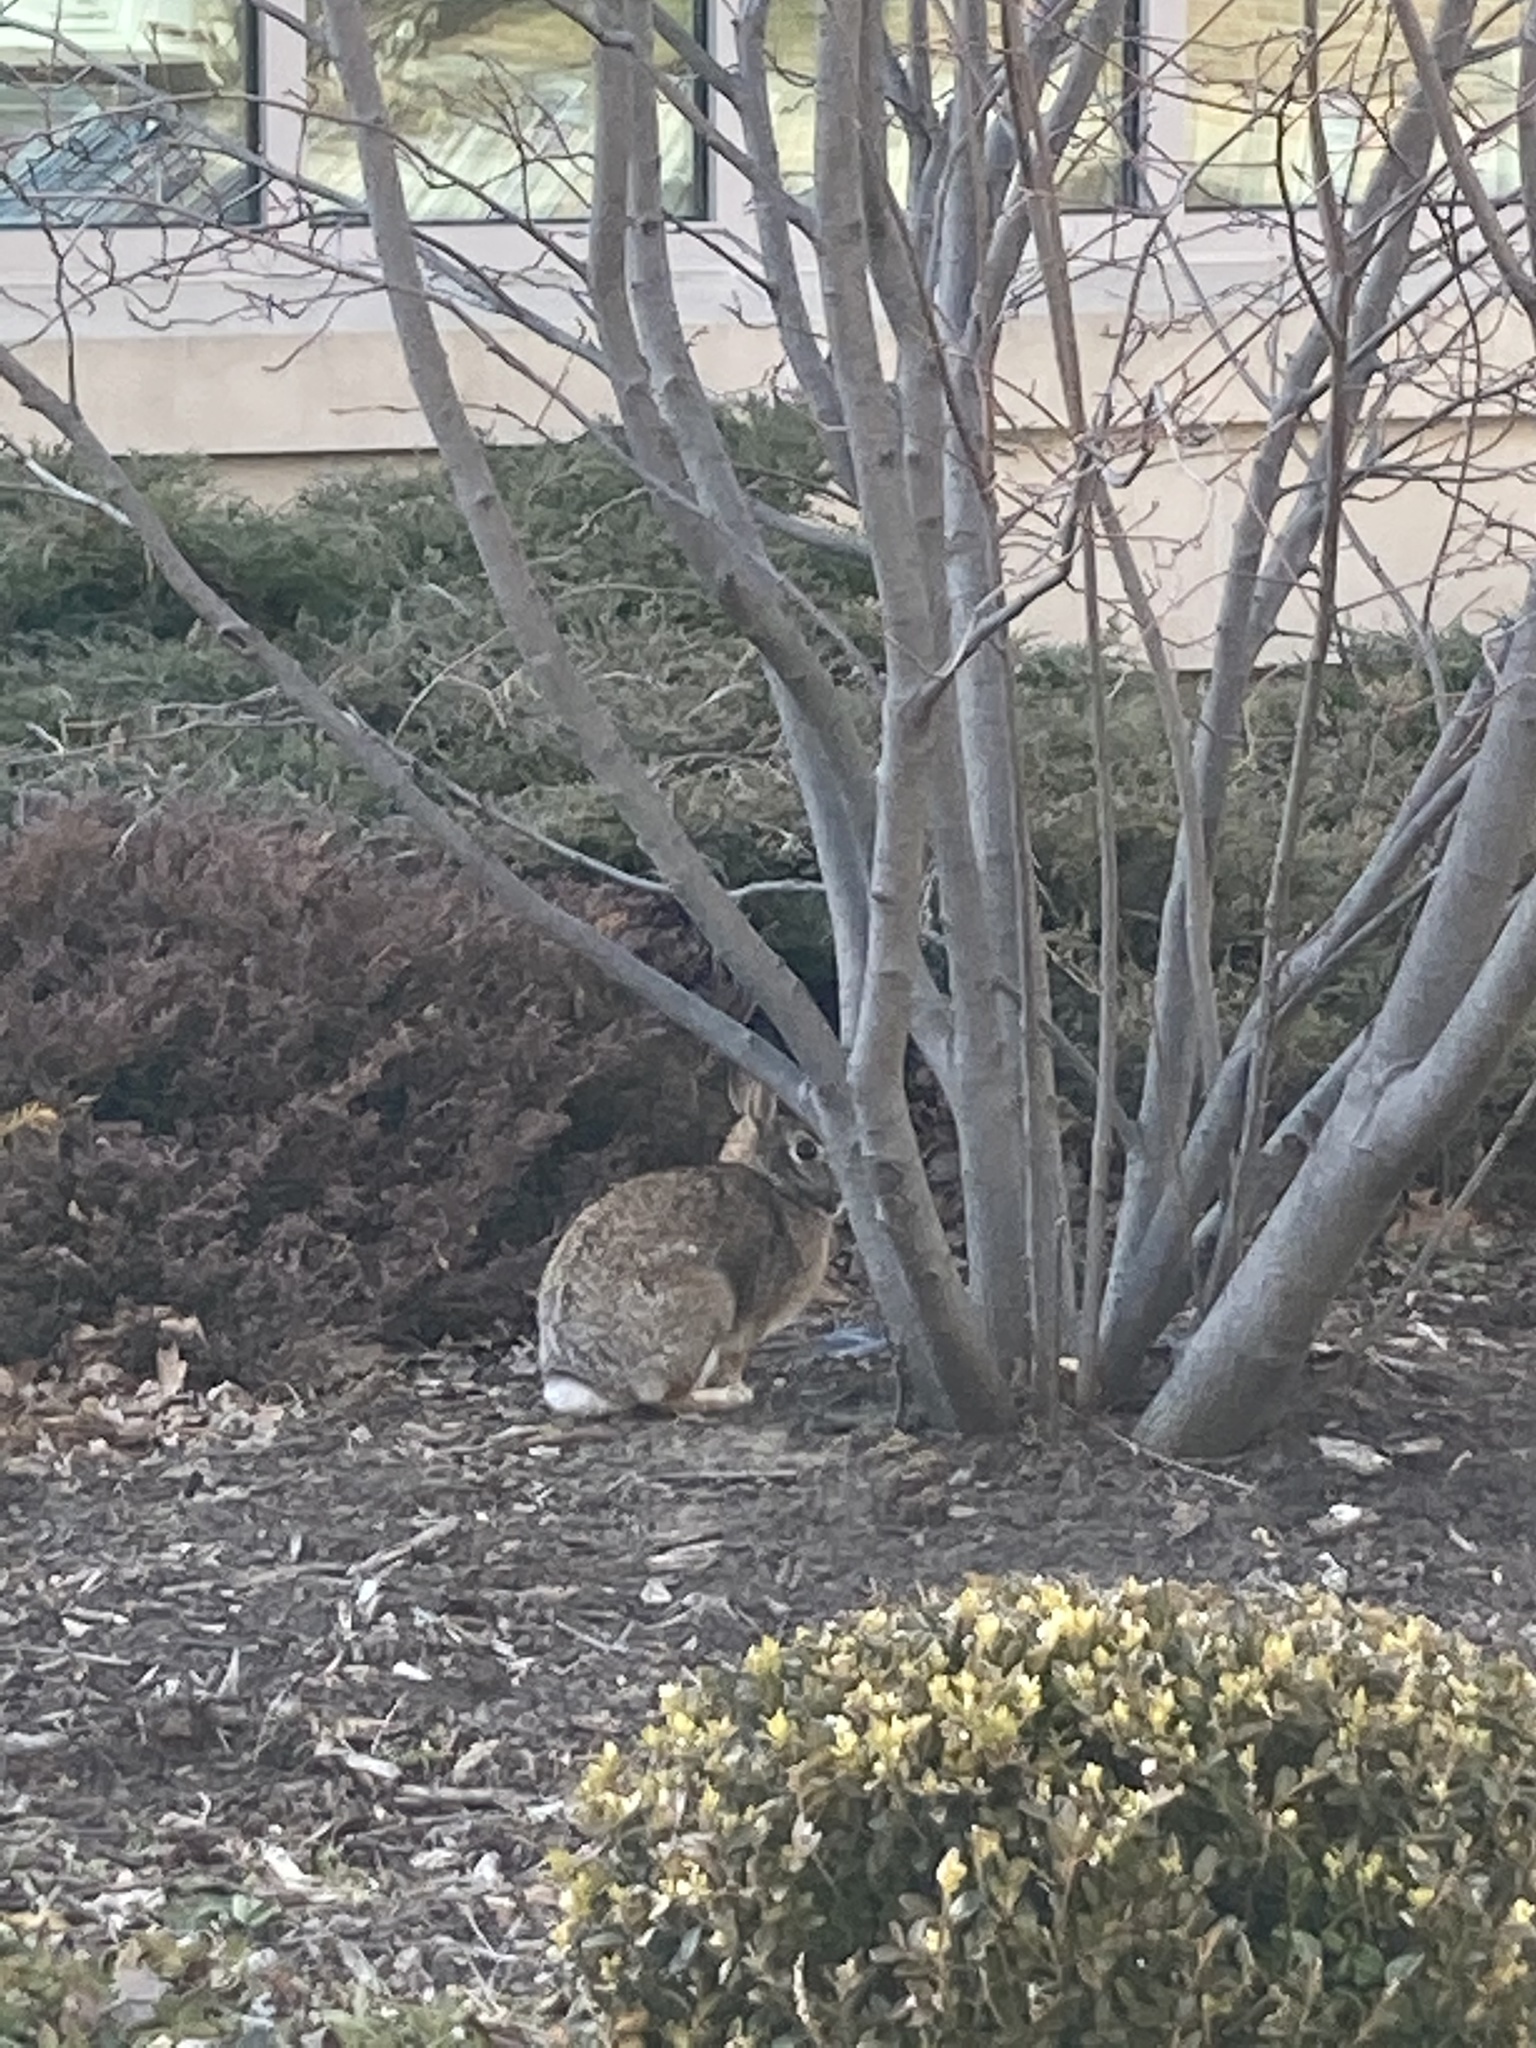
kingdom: Animalia
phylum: Chordata
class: Mammalia
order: Lagomorpha
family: Leporidae
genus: Sylvilagus
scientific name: Sylvilagus floridanus
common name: Eastern cottontail
